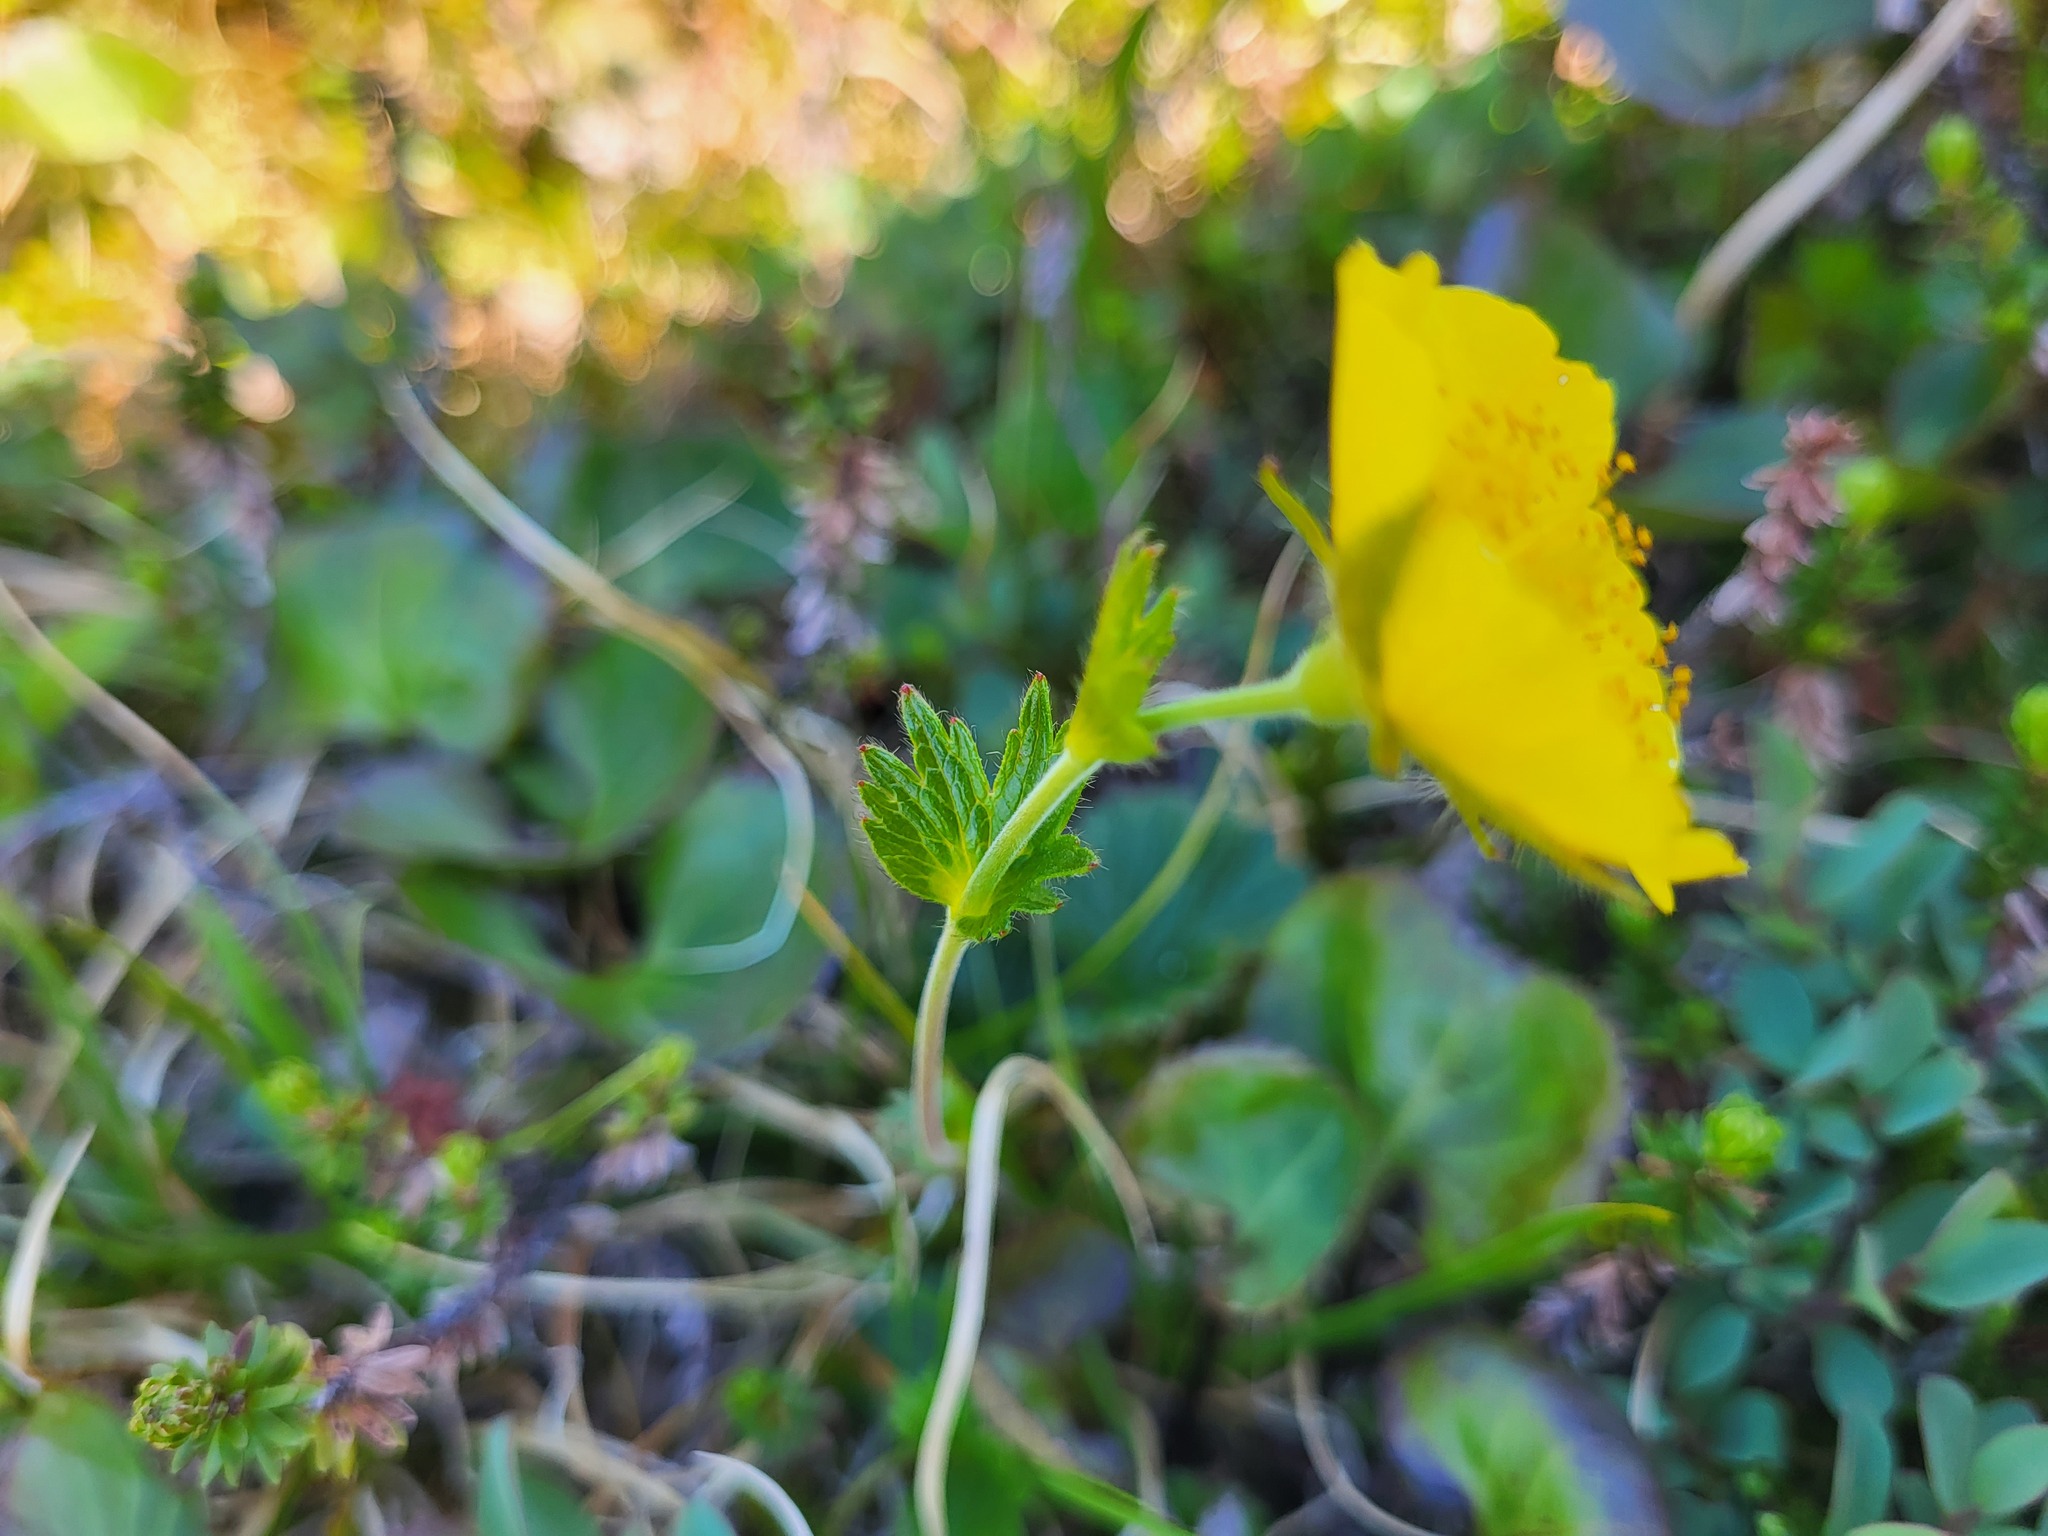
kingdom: Plantae
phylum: Tracheophyta
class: Magnoliopsida
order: Rosales
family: Rosaceae
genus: Geum
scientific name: Geum calthifolium
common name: Caltha-leaved avens
